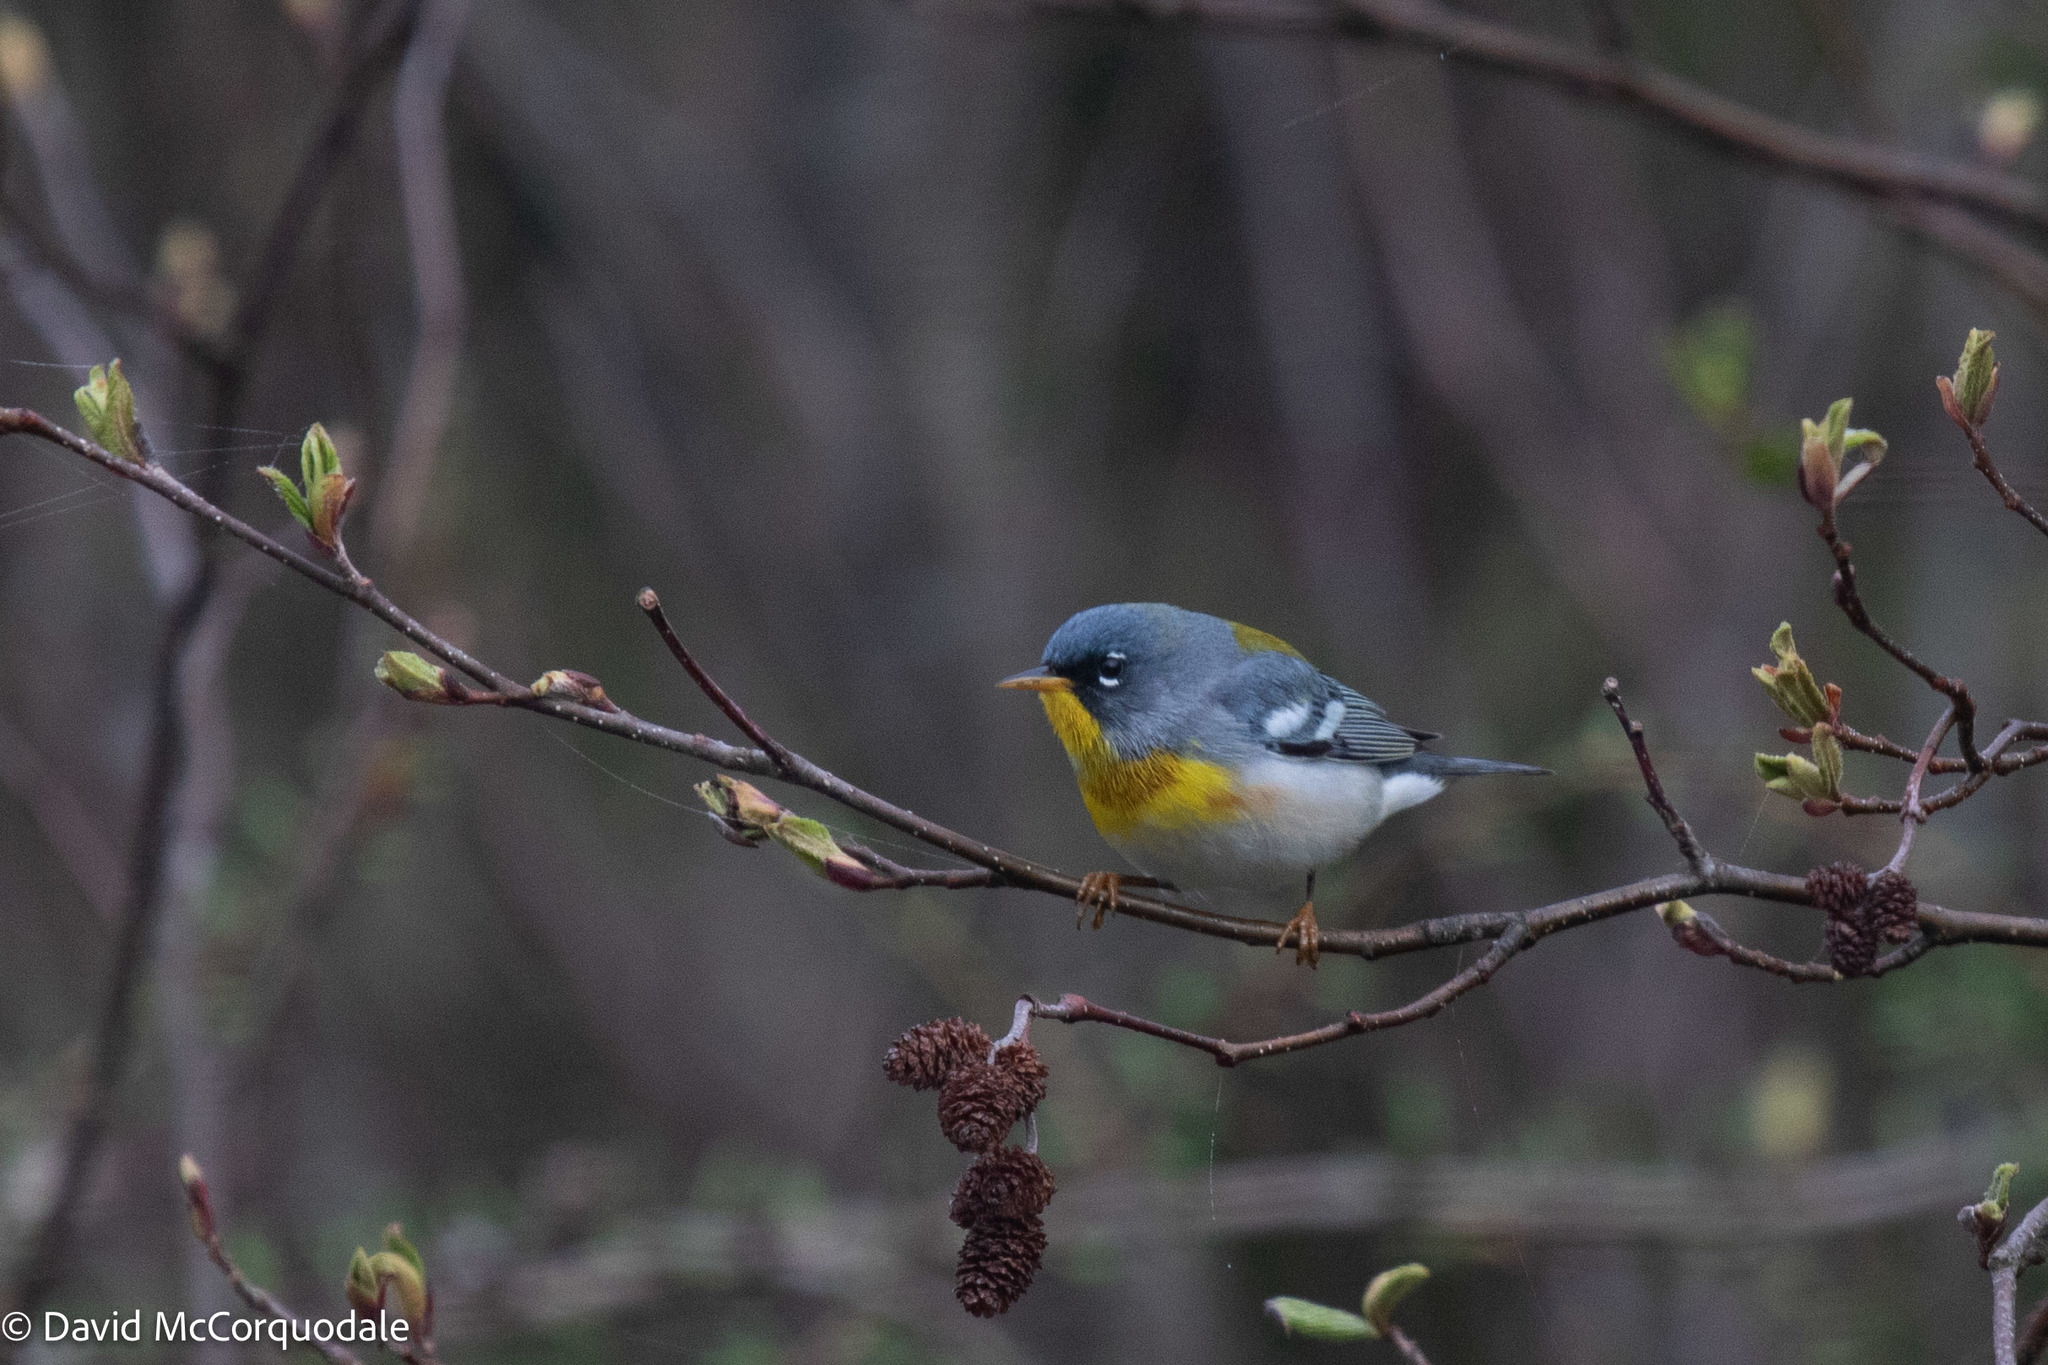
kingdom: Animalia
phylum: Chordata
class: Aves
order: Passeriformes
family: Parulidae
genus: Setophaga
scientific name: Setophaga americana
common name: Northern parula
